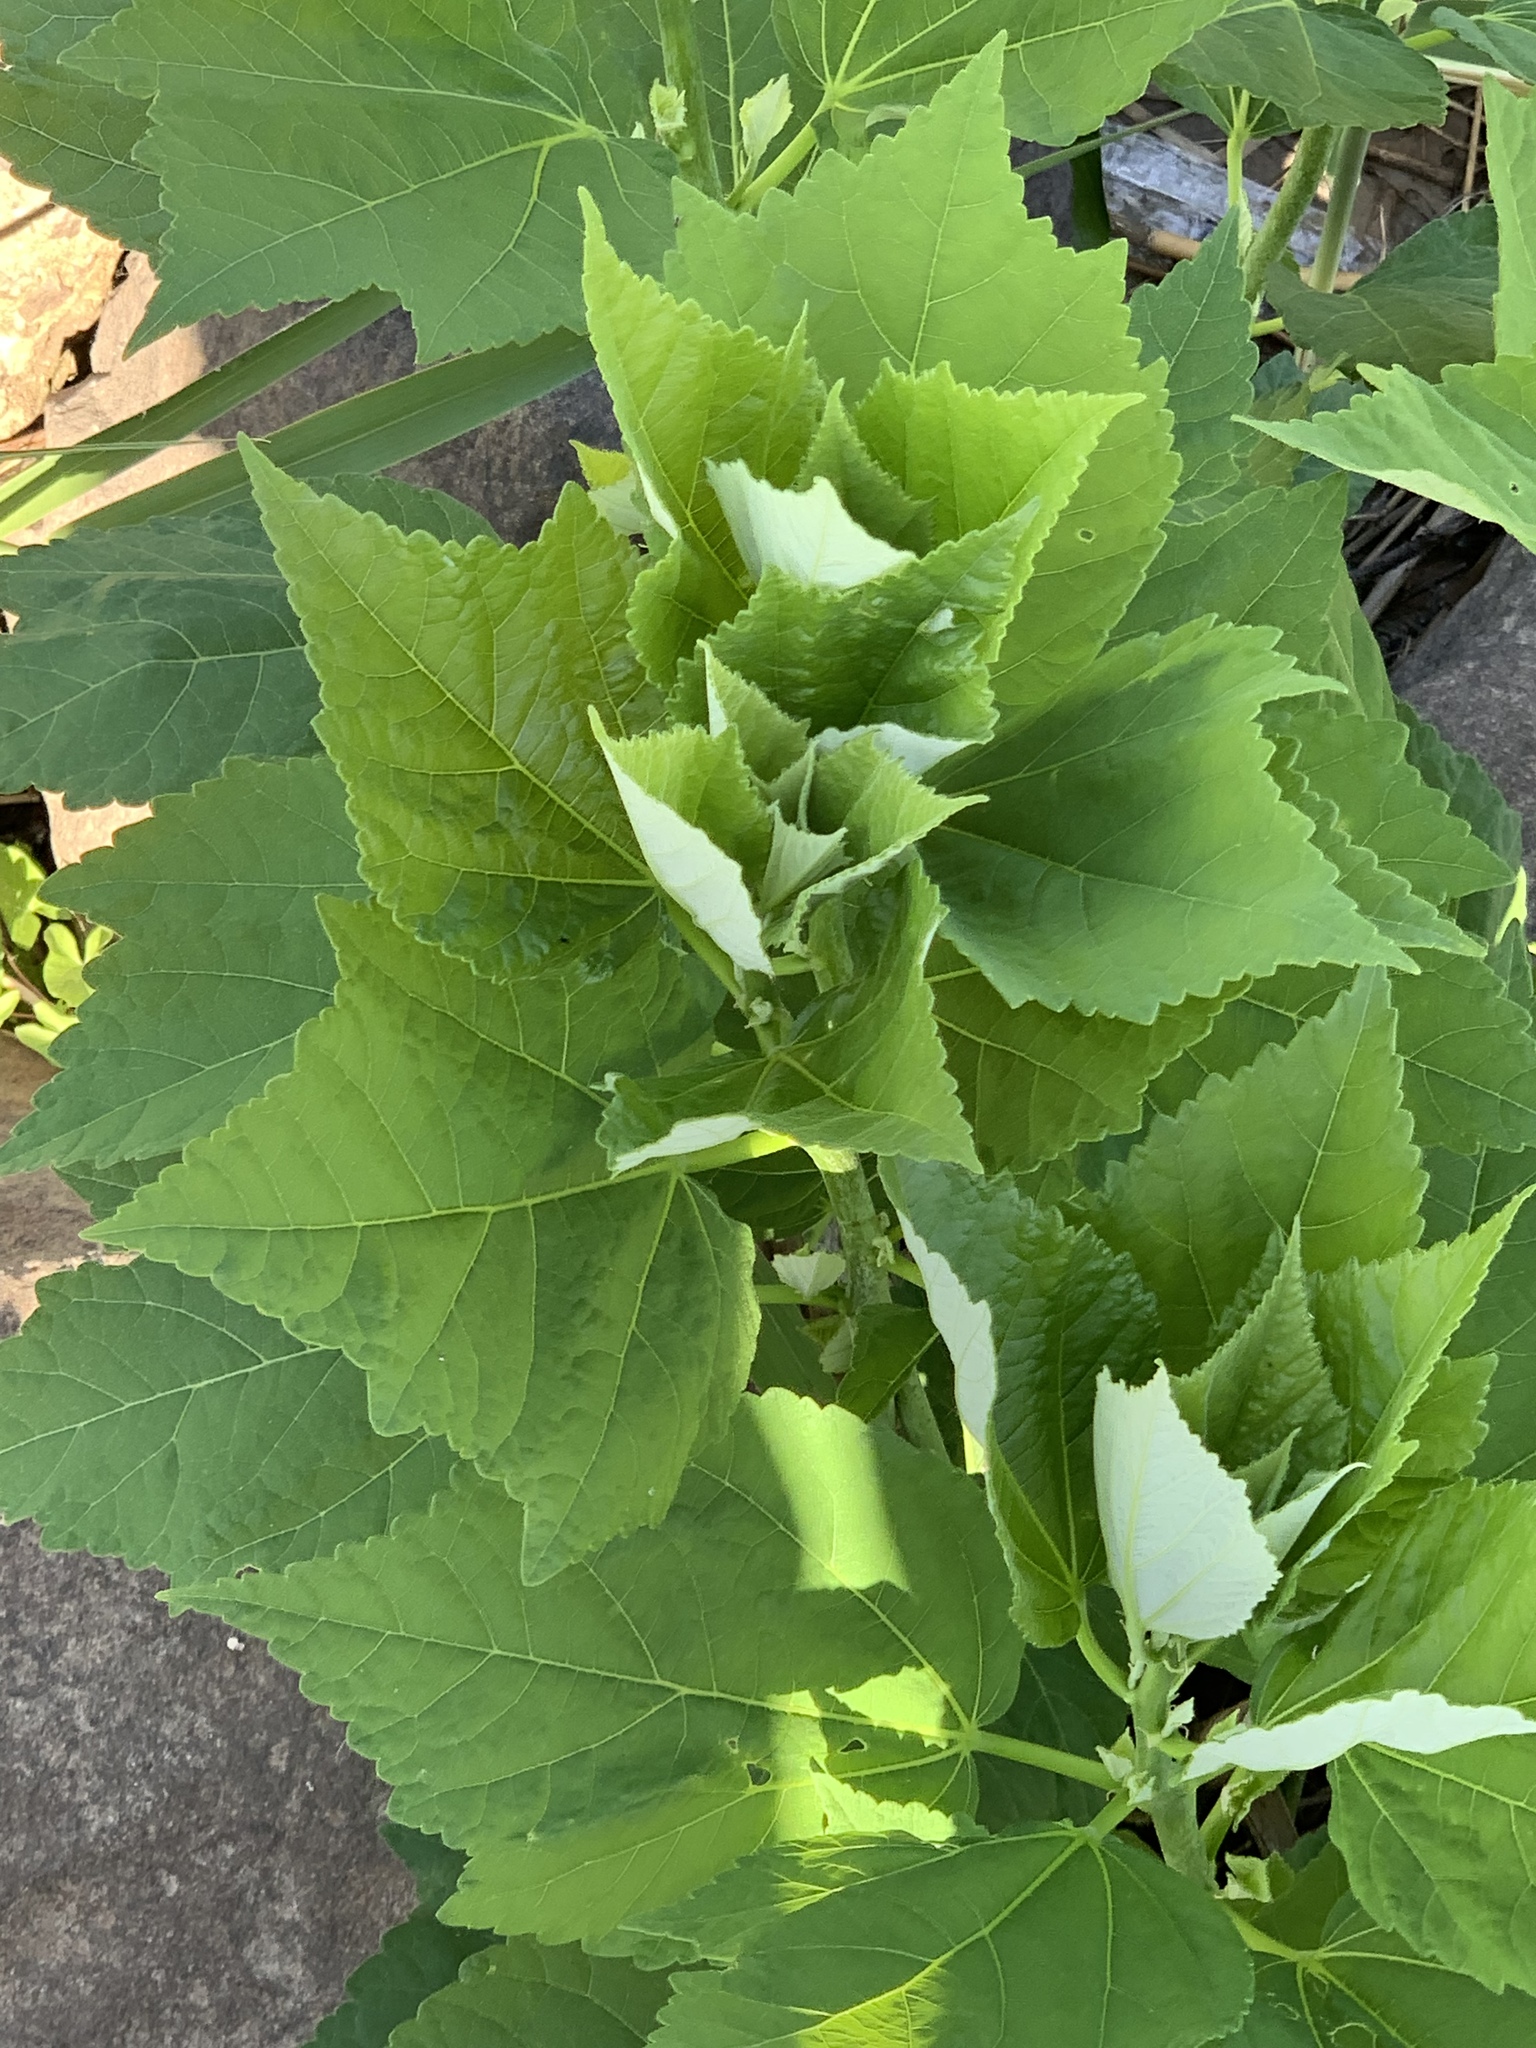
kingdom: Plantae
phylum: Tracheophyta
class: Magnoliopsida
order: Malvales
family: Malvaceae
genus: Hibiscus
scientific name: Hibiscus moscheutos
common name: Common rose-mallow
